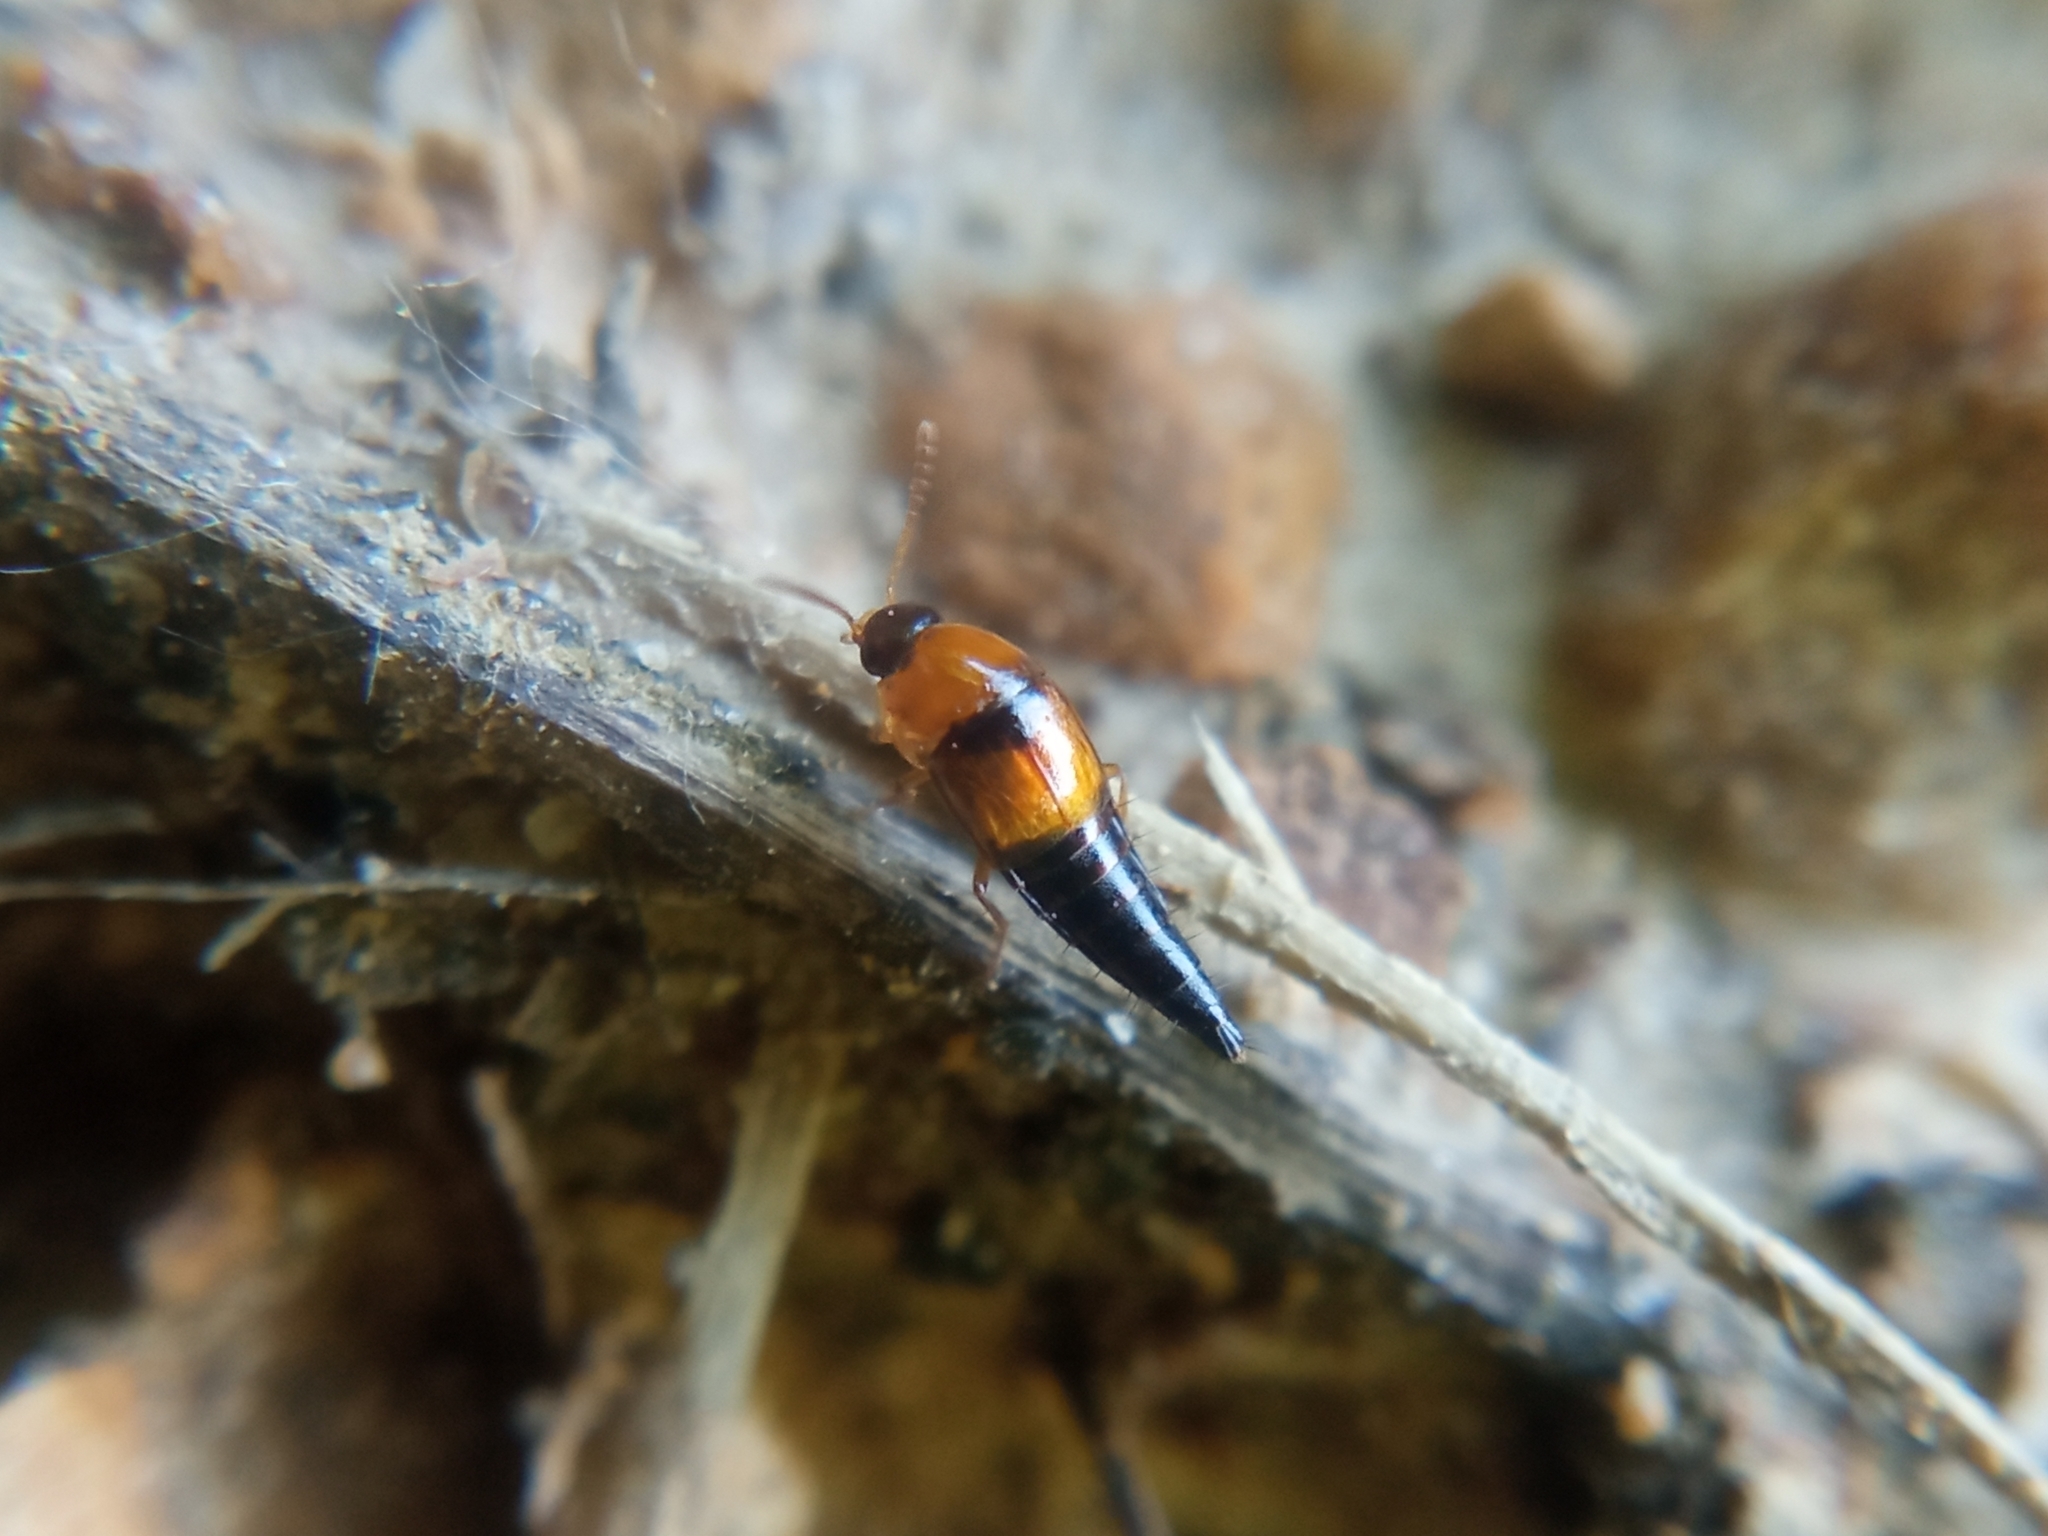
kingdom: Animalia
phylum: Arthropoda
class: Insecta
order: Coleoptera
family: Staphylinidae
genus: Tachyporus
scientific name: Tachyporus solutus
